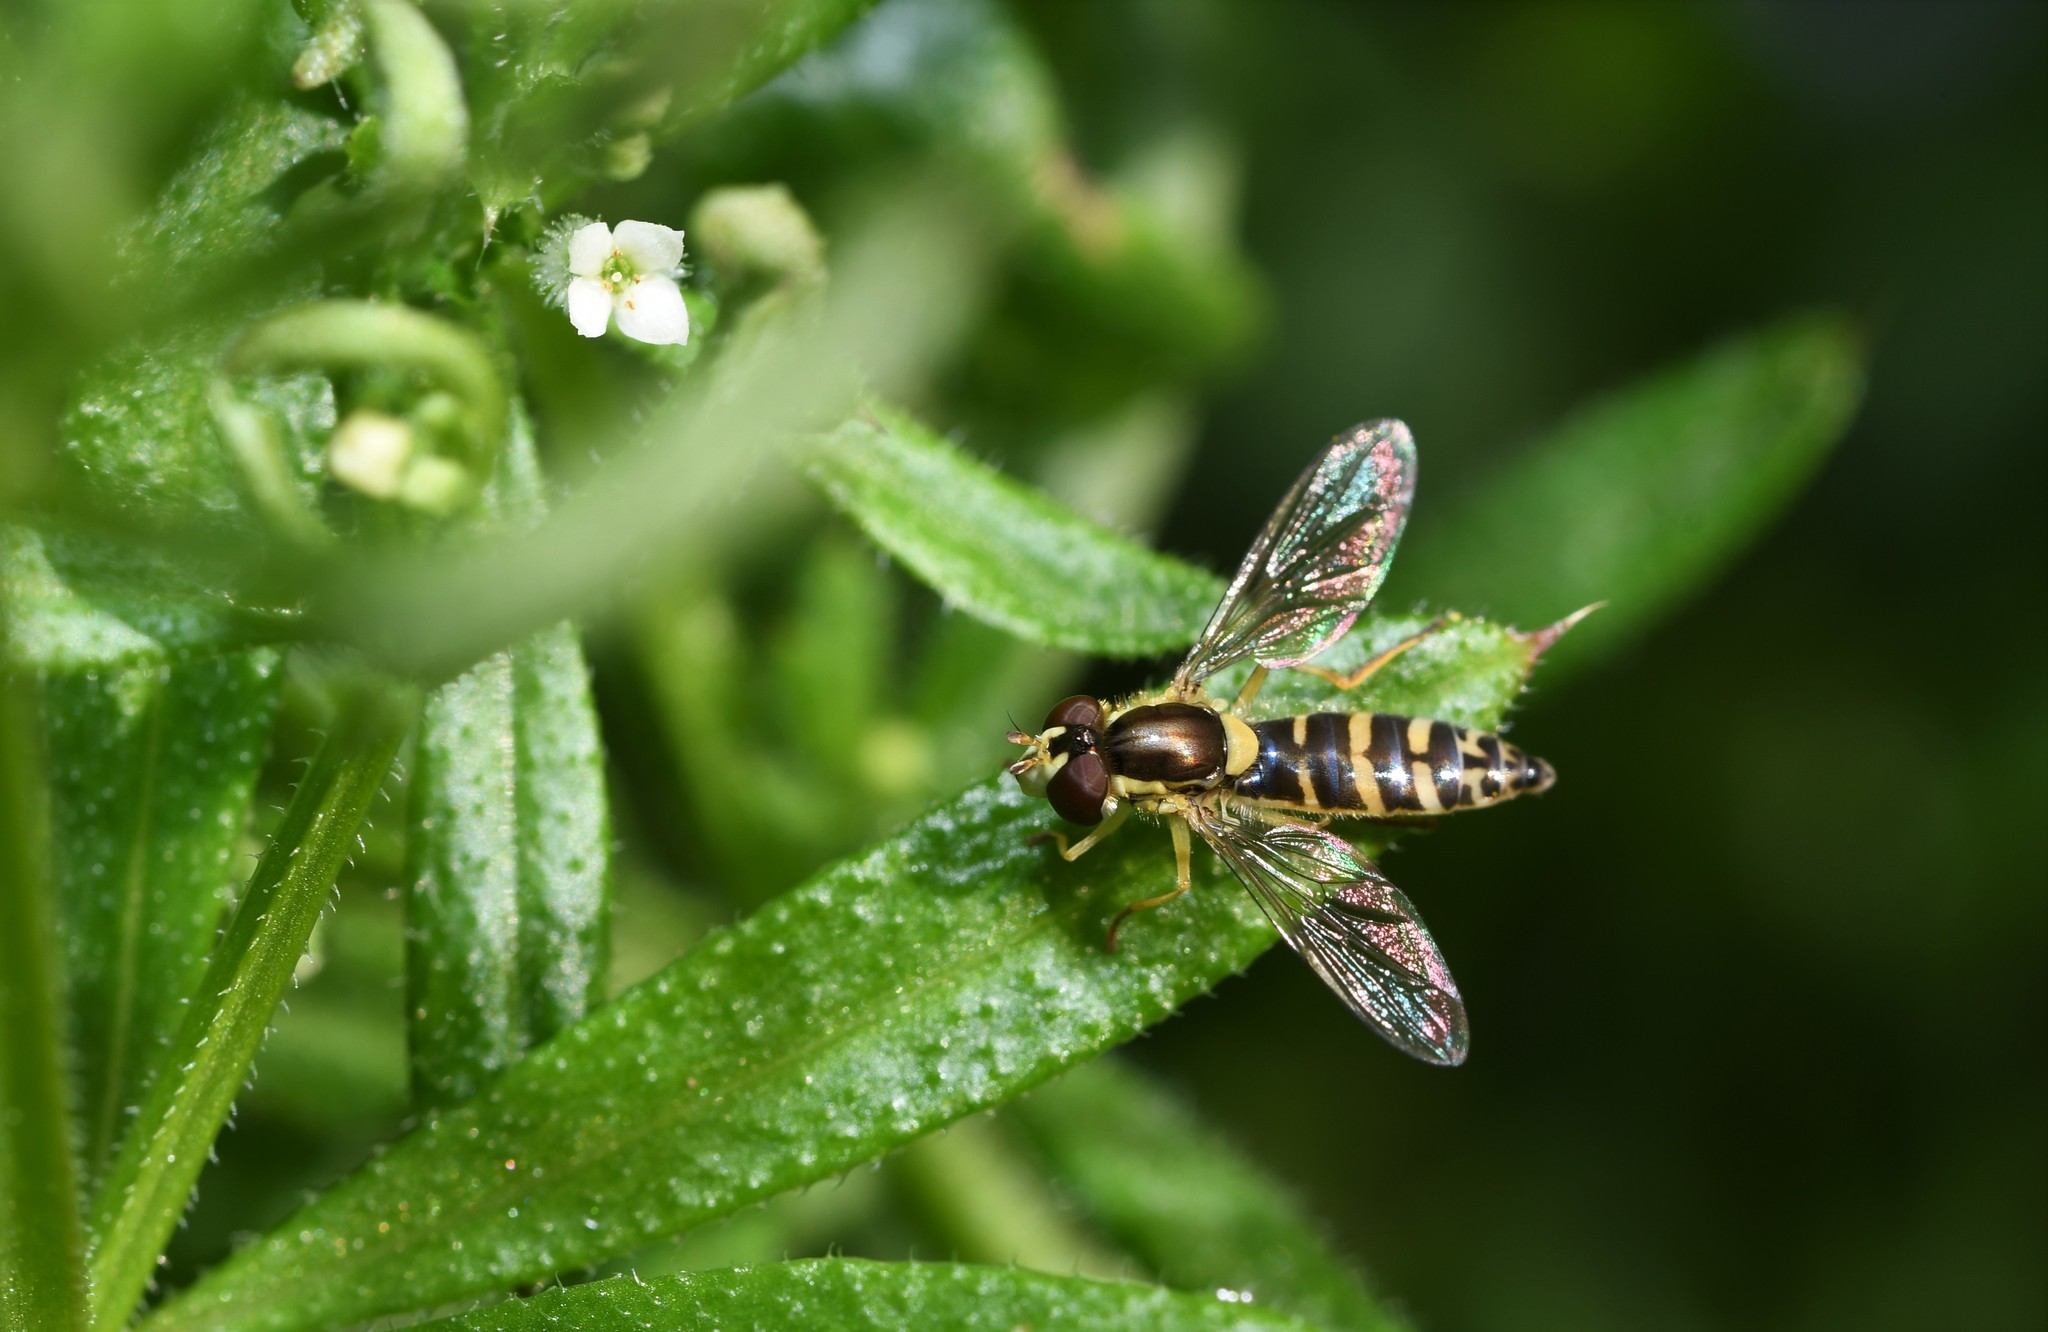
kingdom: Animalia
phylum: Arthropoda
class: Insecta
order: Diptera
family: Syrphidae
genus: Sphaerophoria
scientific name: Sphaerophoria
